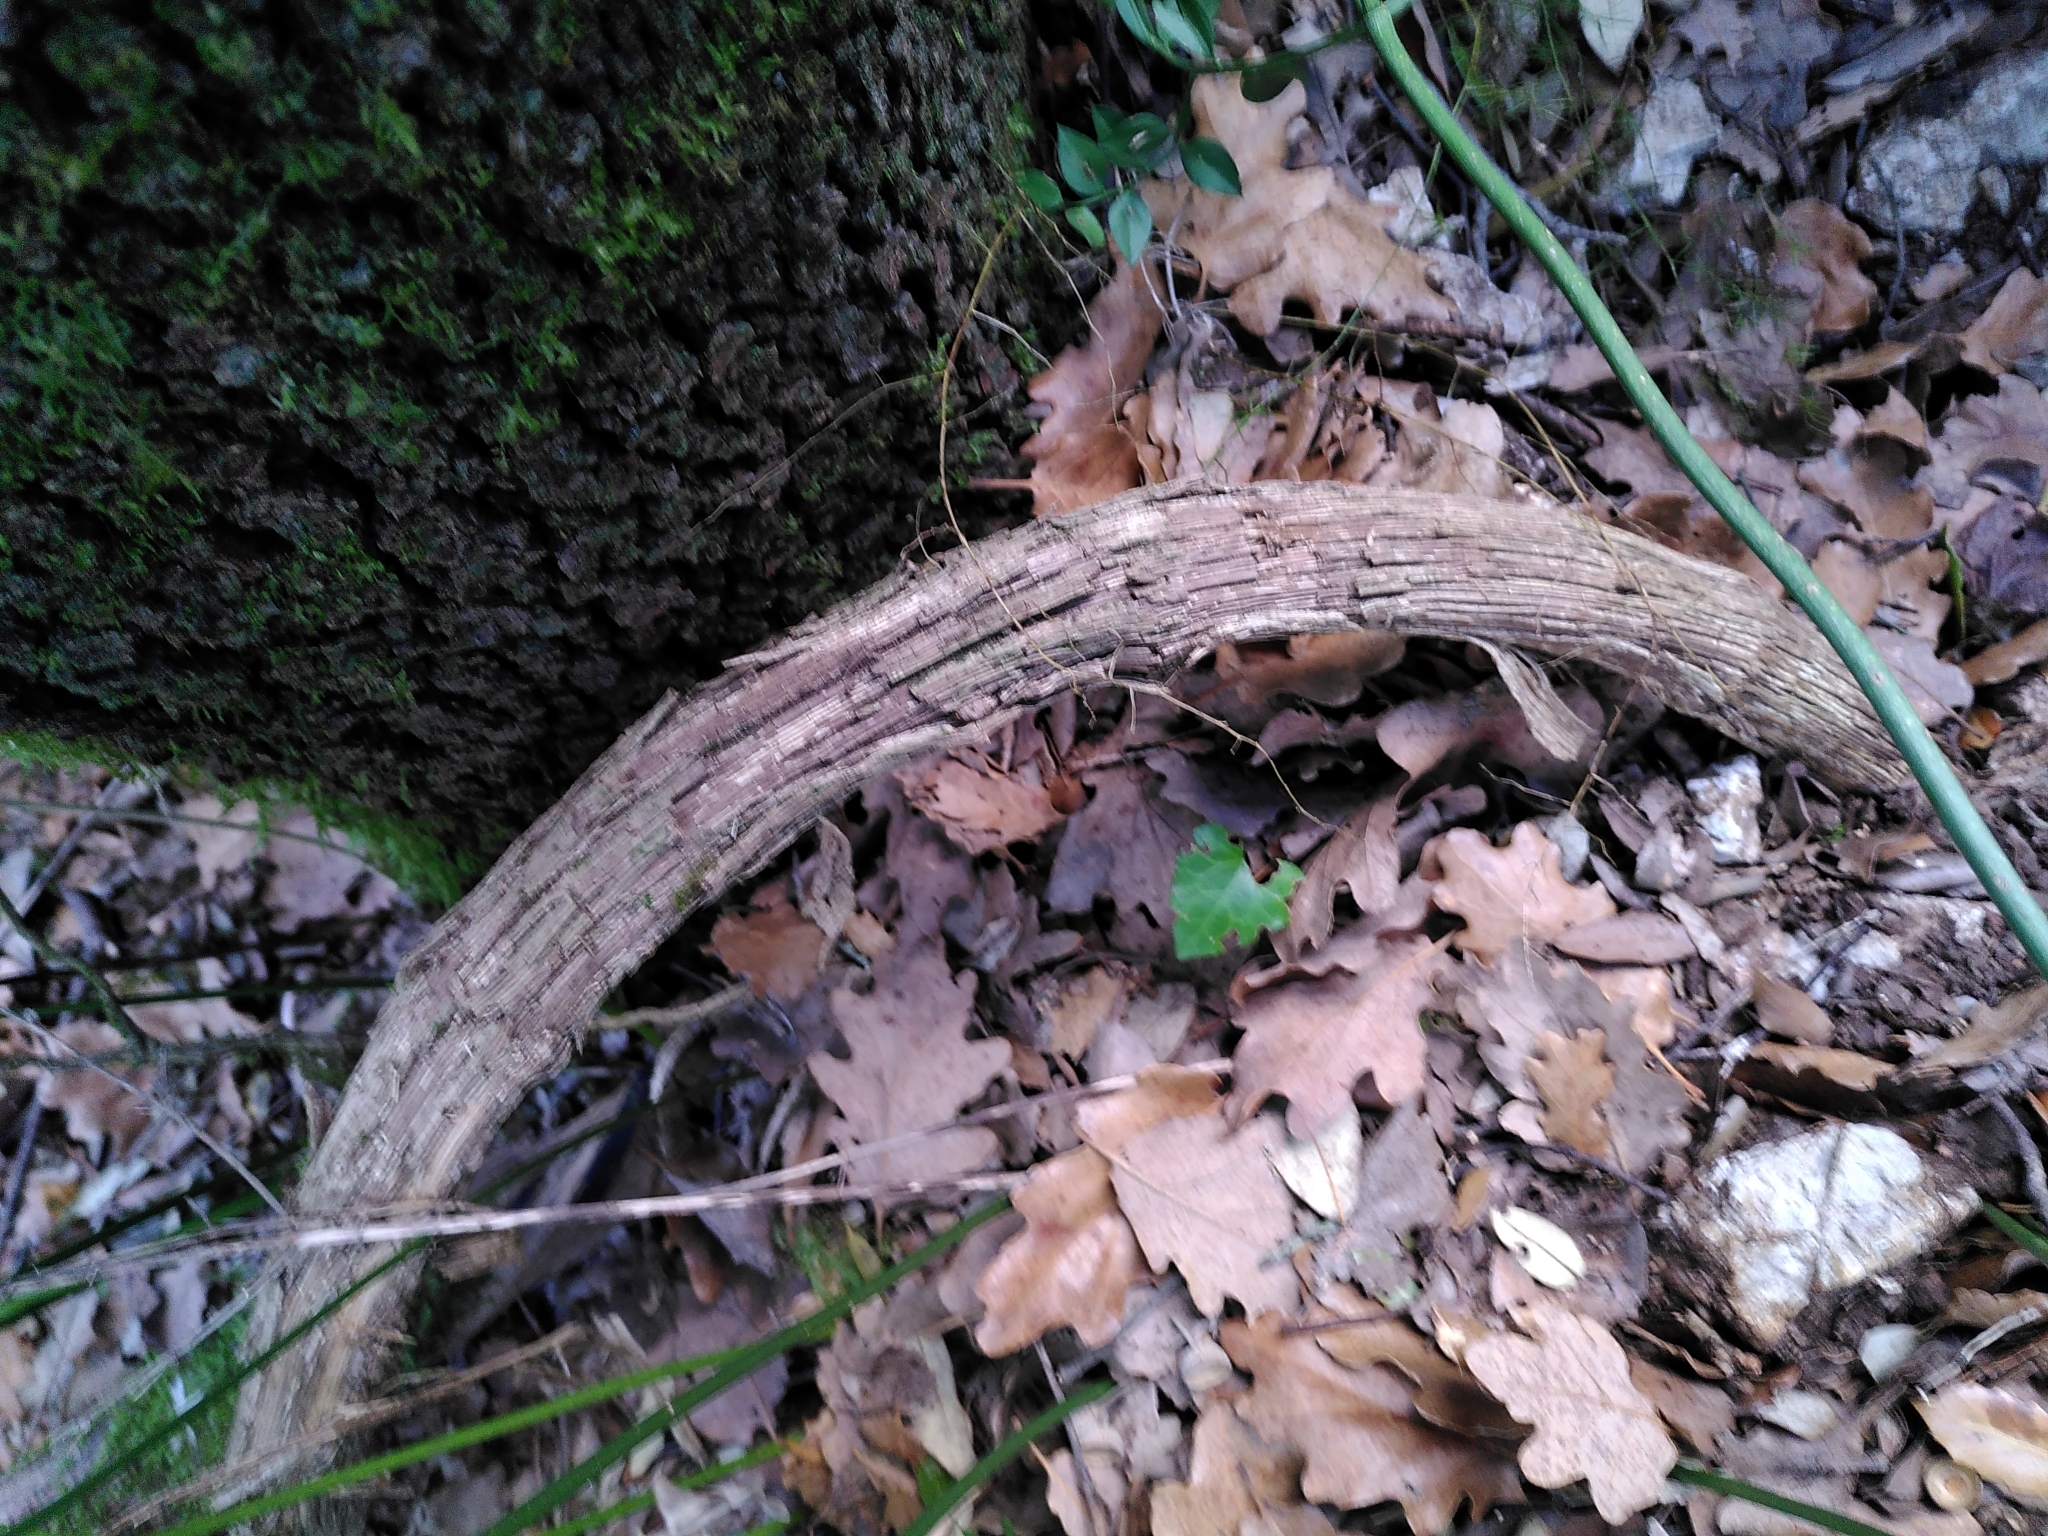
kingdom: Plantae
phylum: Tracheophyta
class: Magnoliopsida
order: Vitales
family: Vitaceae
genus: Vitis
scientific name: Vitis gmelinii
